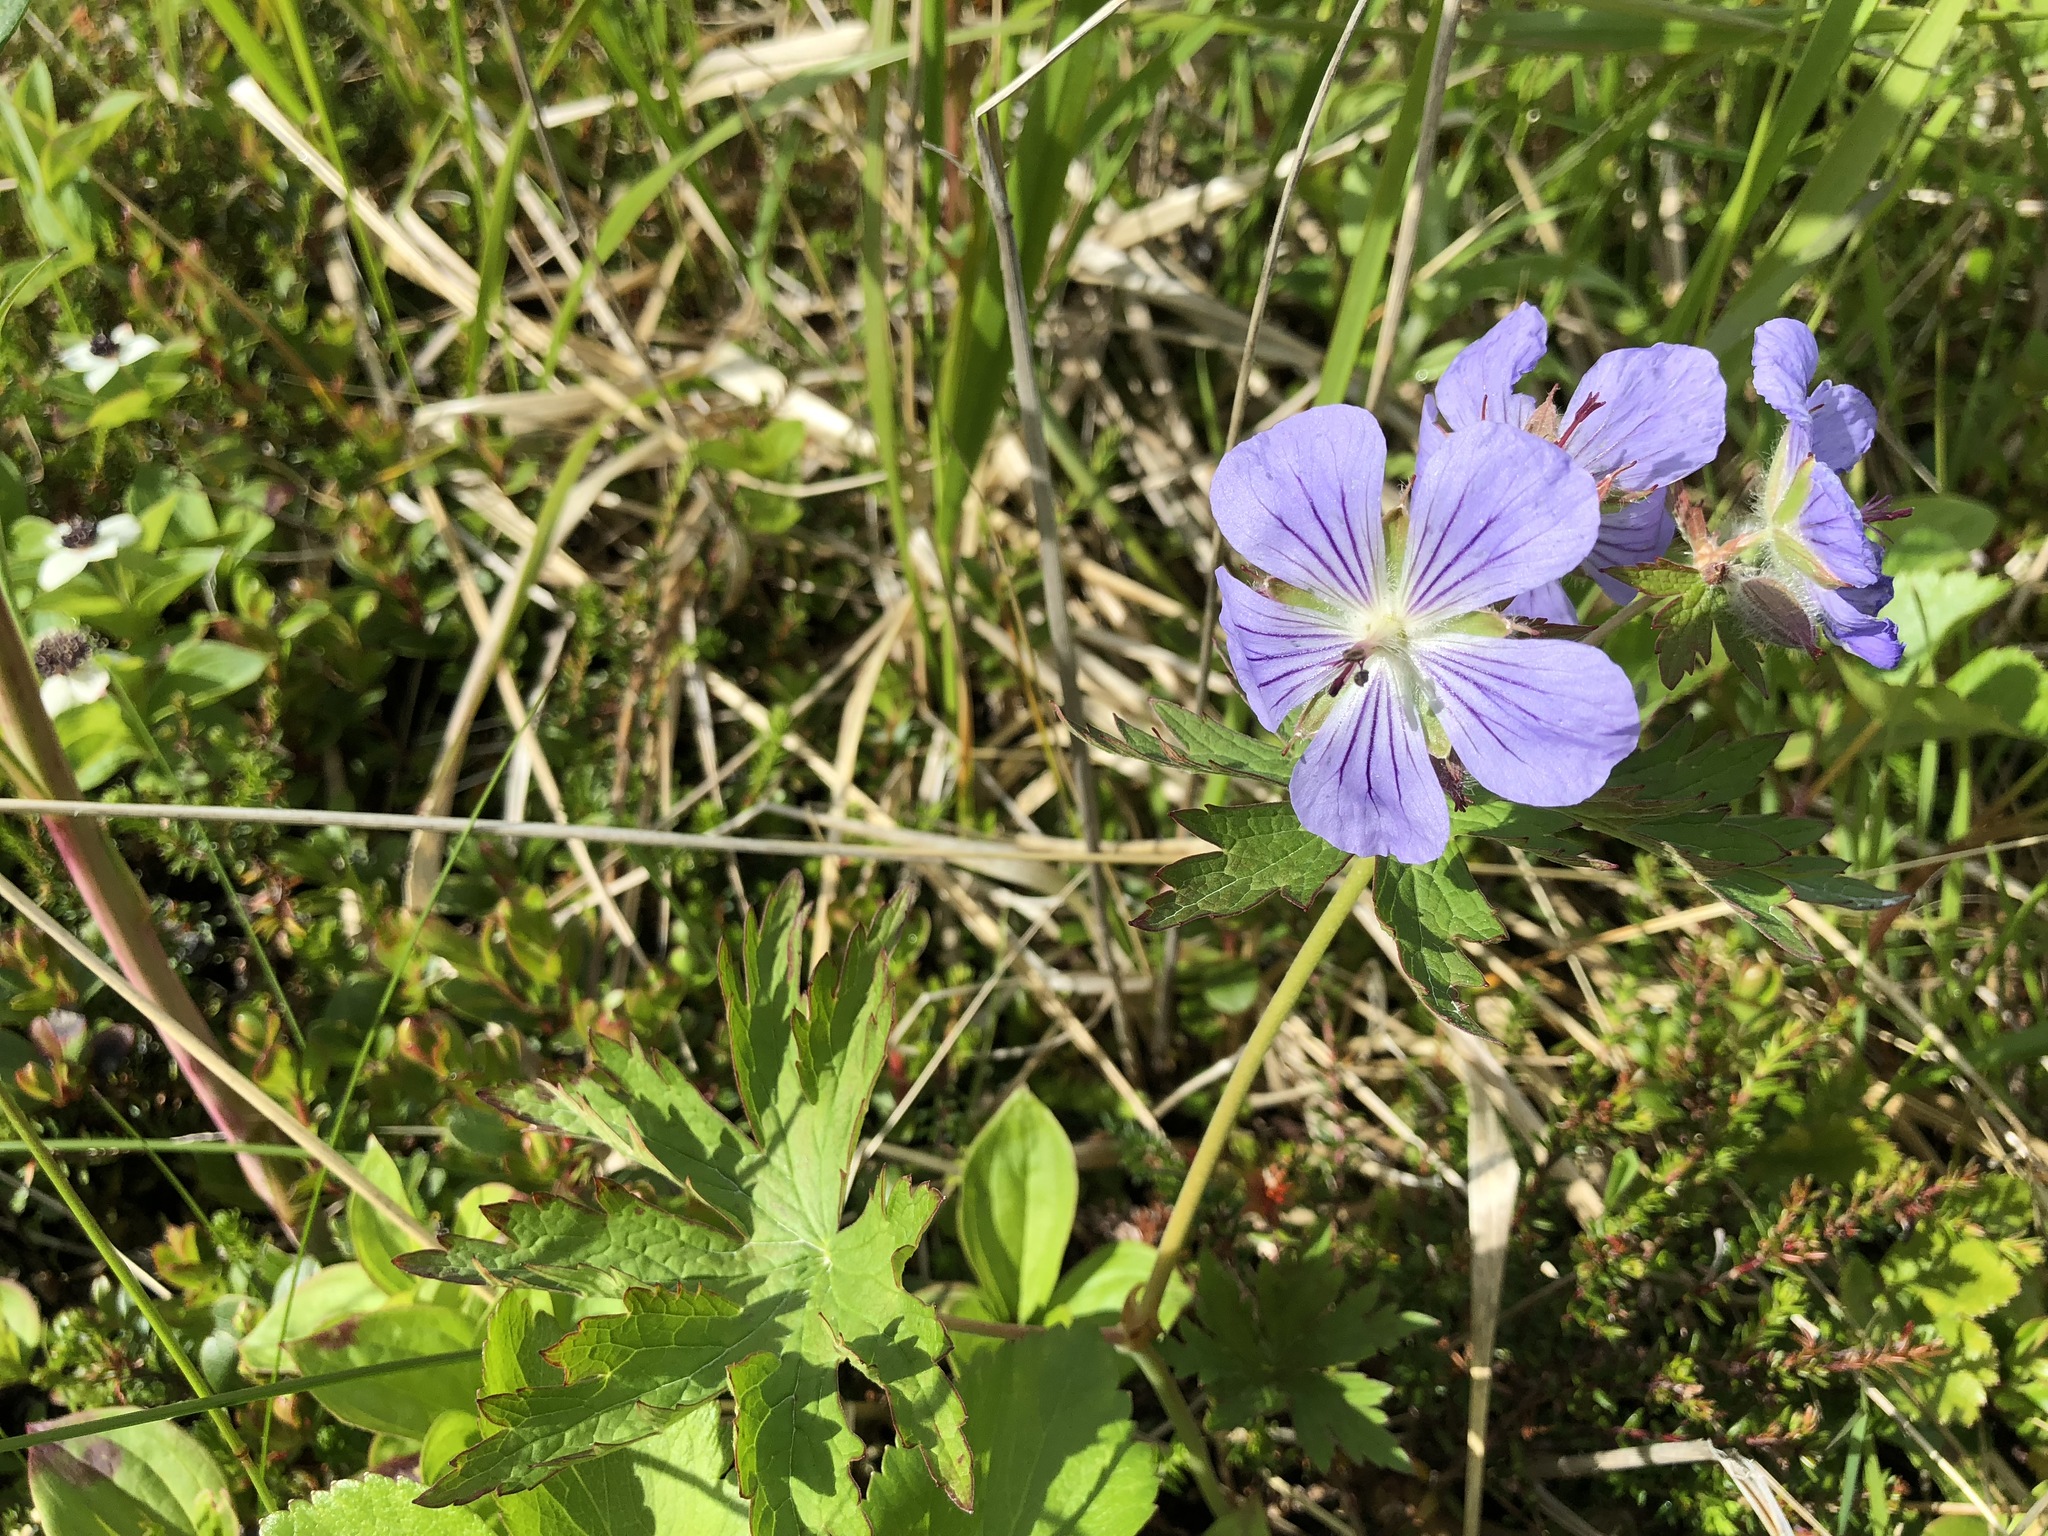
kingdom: Plantae
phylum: Tracheophyta
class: Magnoliopsida
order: Geraniales
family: Geraniaceae
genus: Geranium
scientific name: Geranium erianthum
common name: Northern crane's-bill
